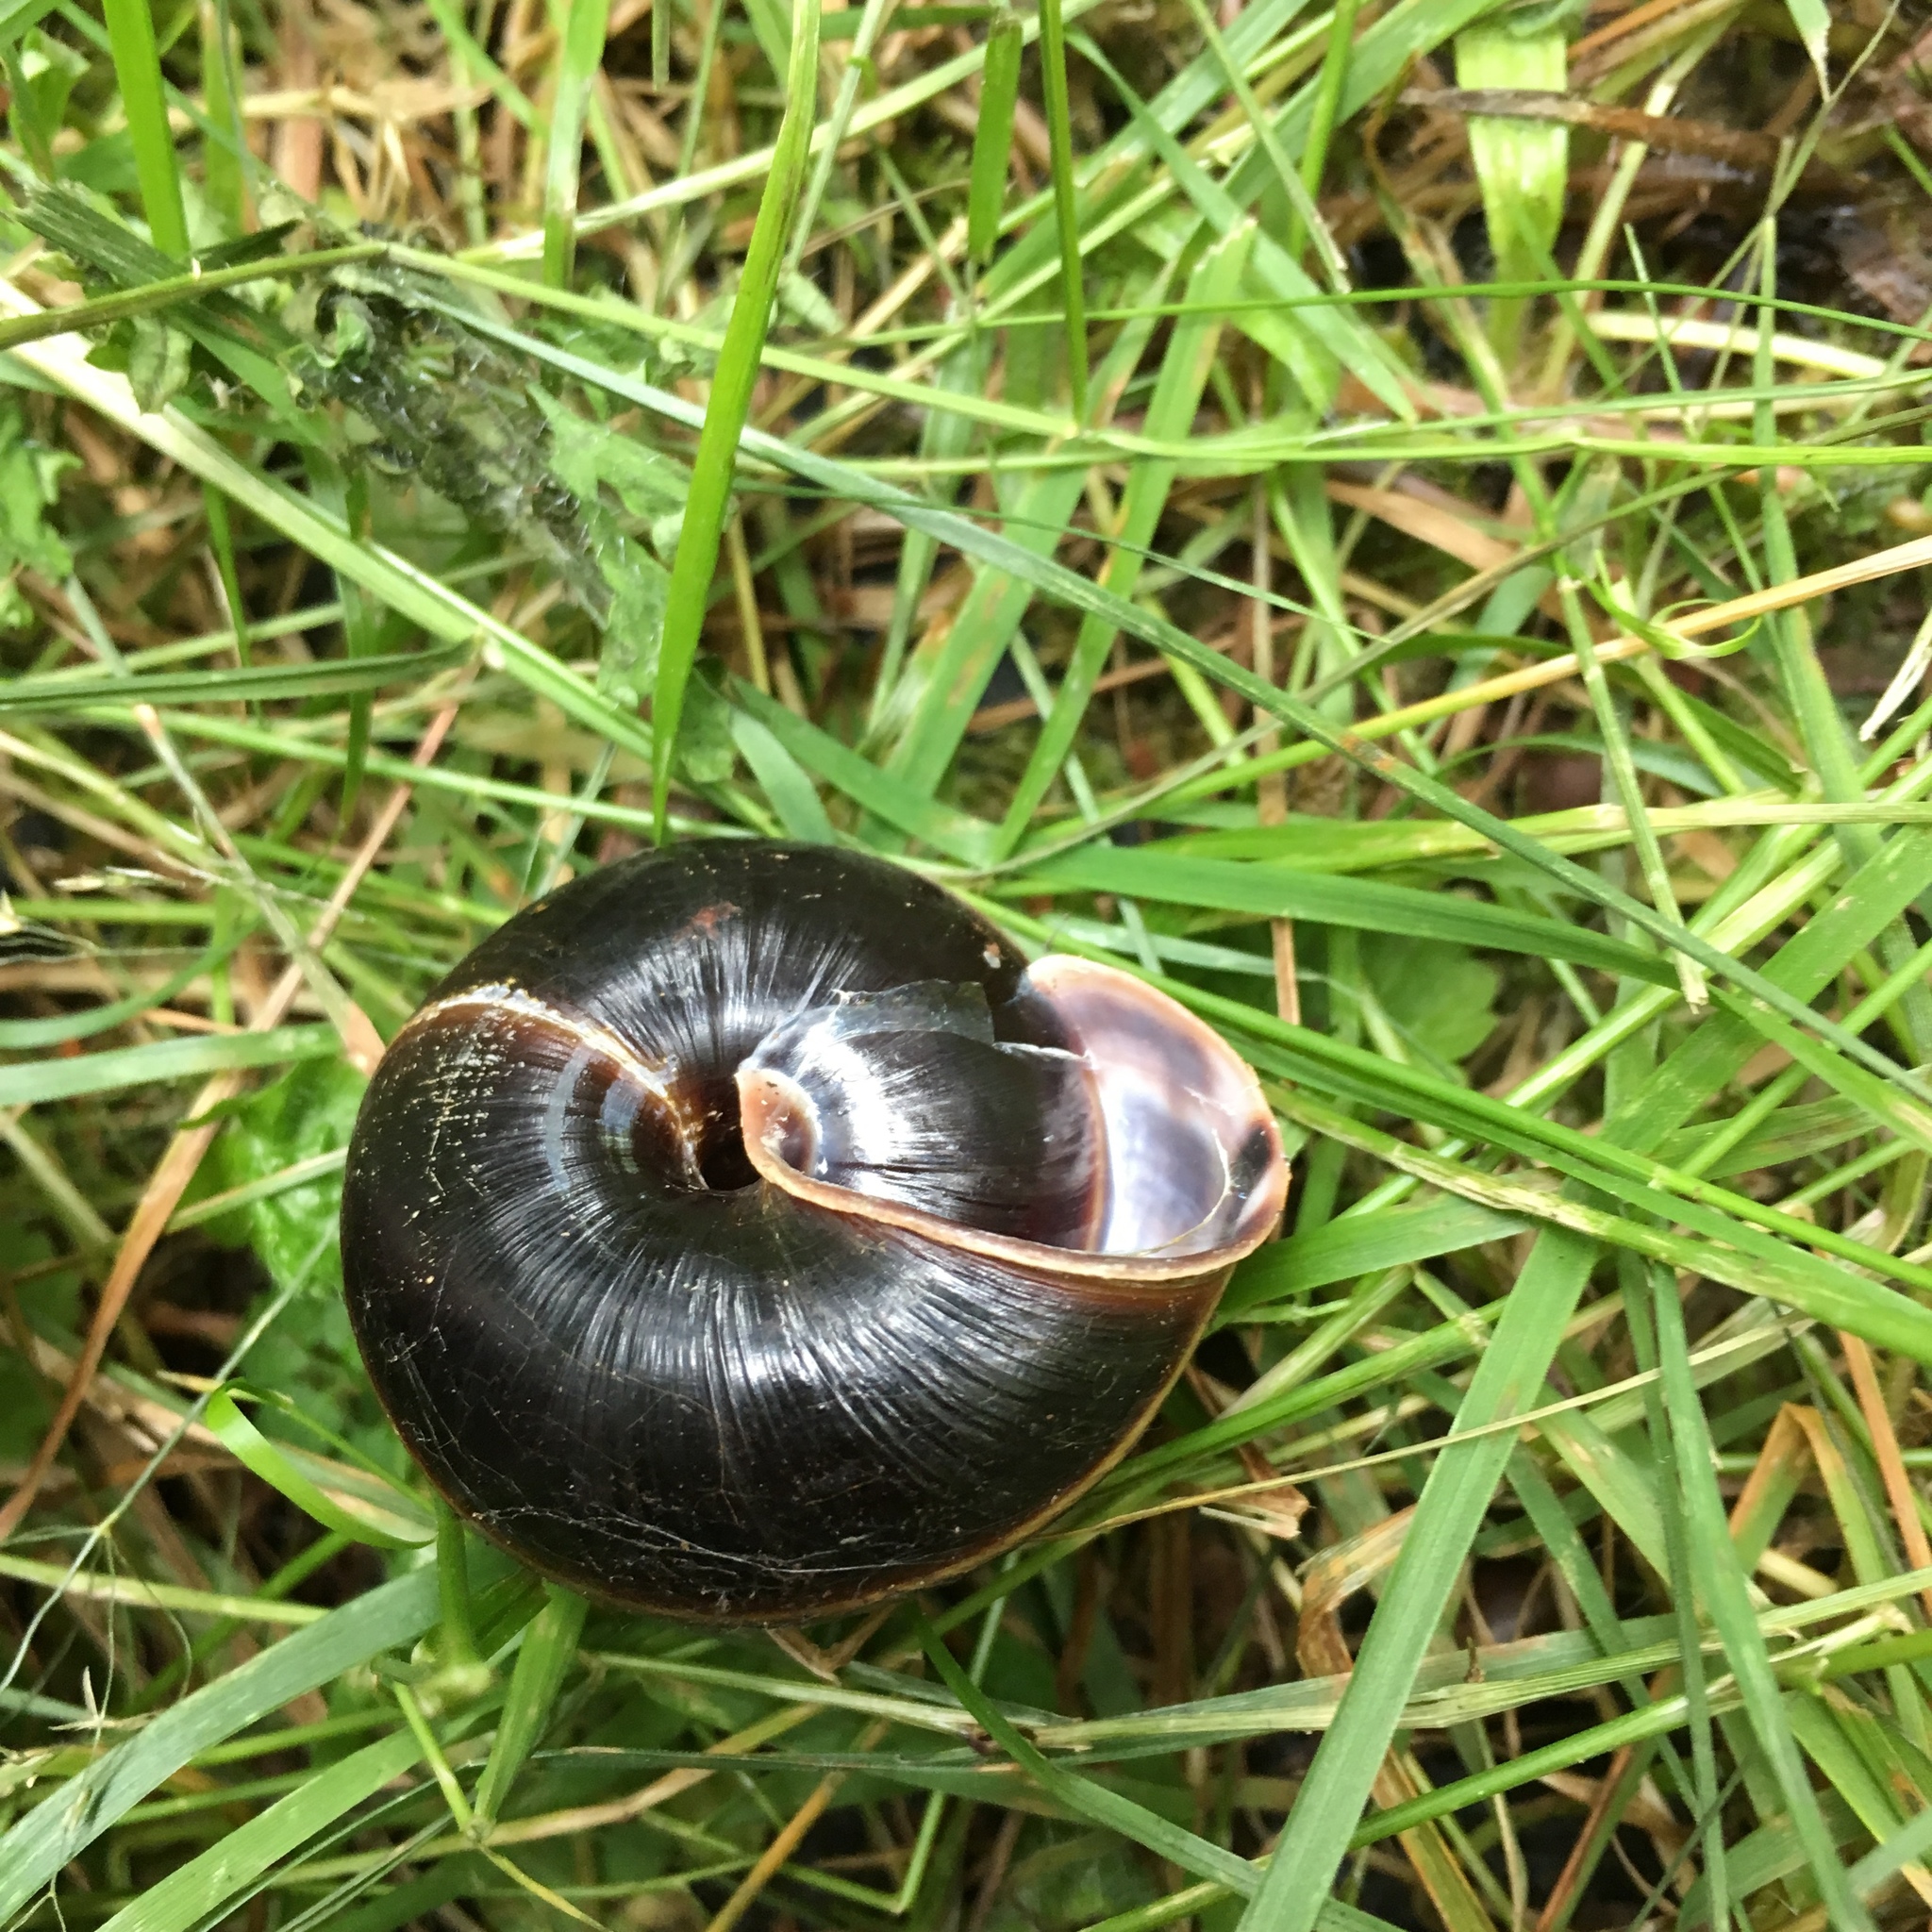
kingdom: Animalia
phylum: Mollusca
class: Gastropoda
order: Stylommatophora
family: Xanthonychidae
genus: Monadenia
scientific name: Monadenia fidelis
